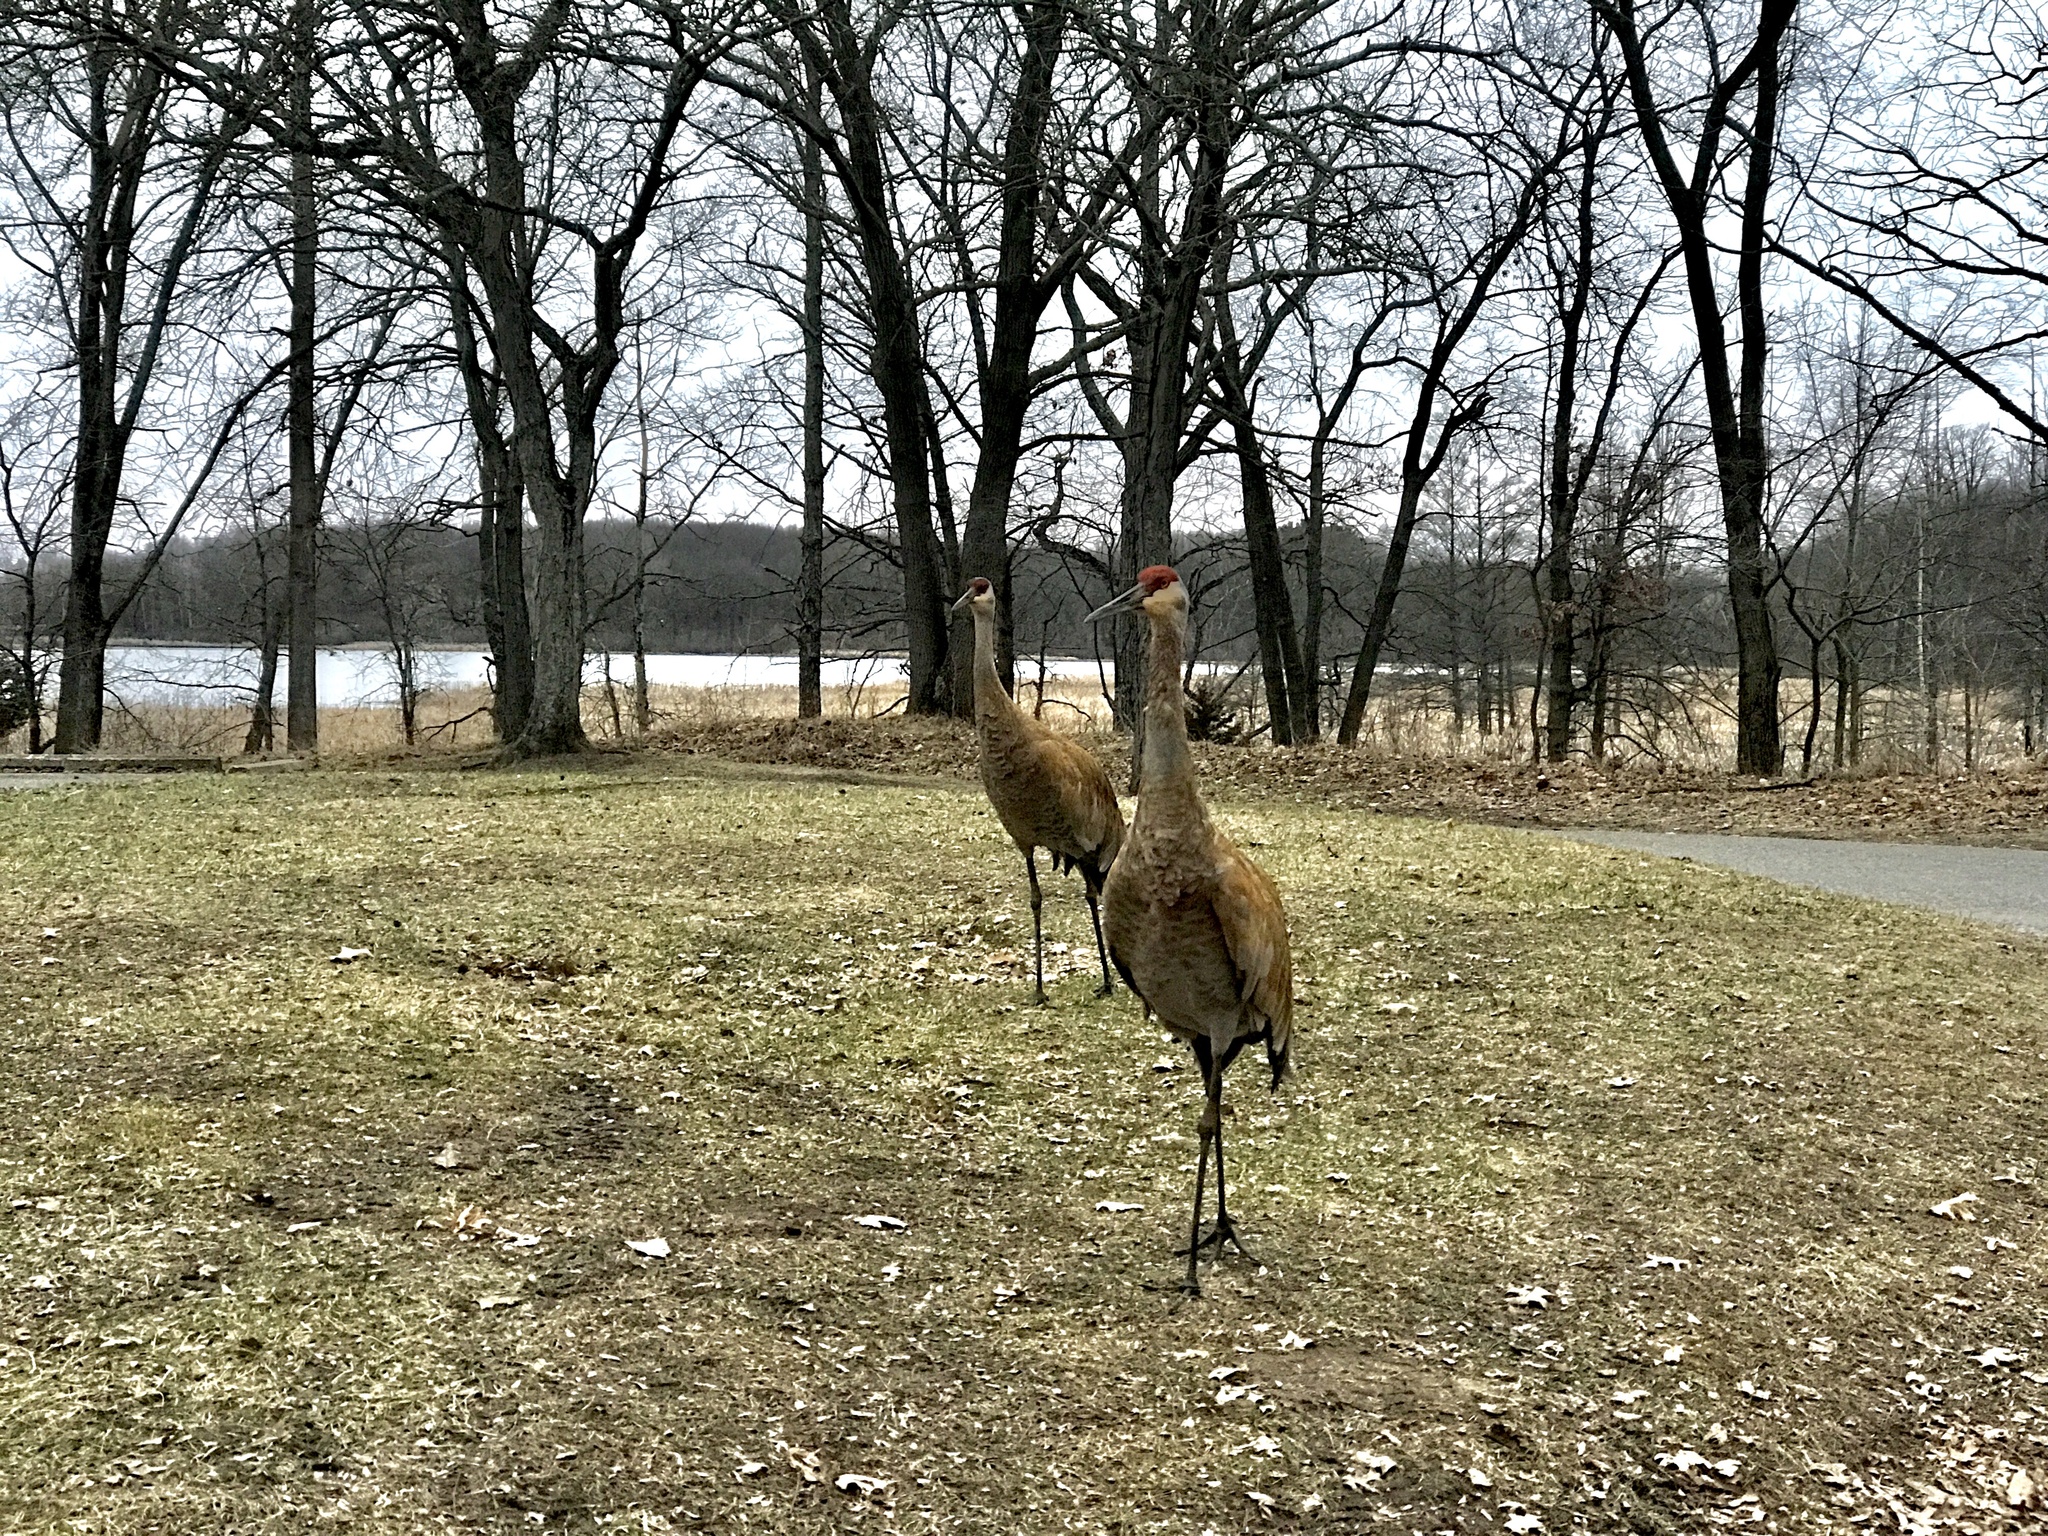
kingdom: Animalia
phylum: Chordata
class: Aves
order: Gruiformes
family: Gruidae
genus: Grus
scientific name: Grus canadensis
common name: Sandhill crane
